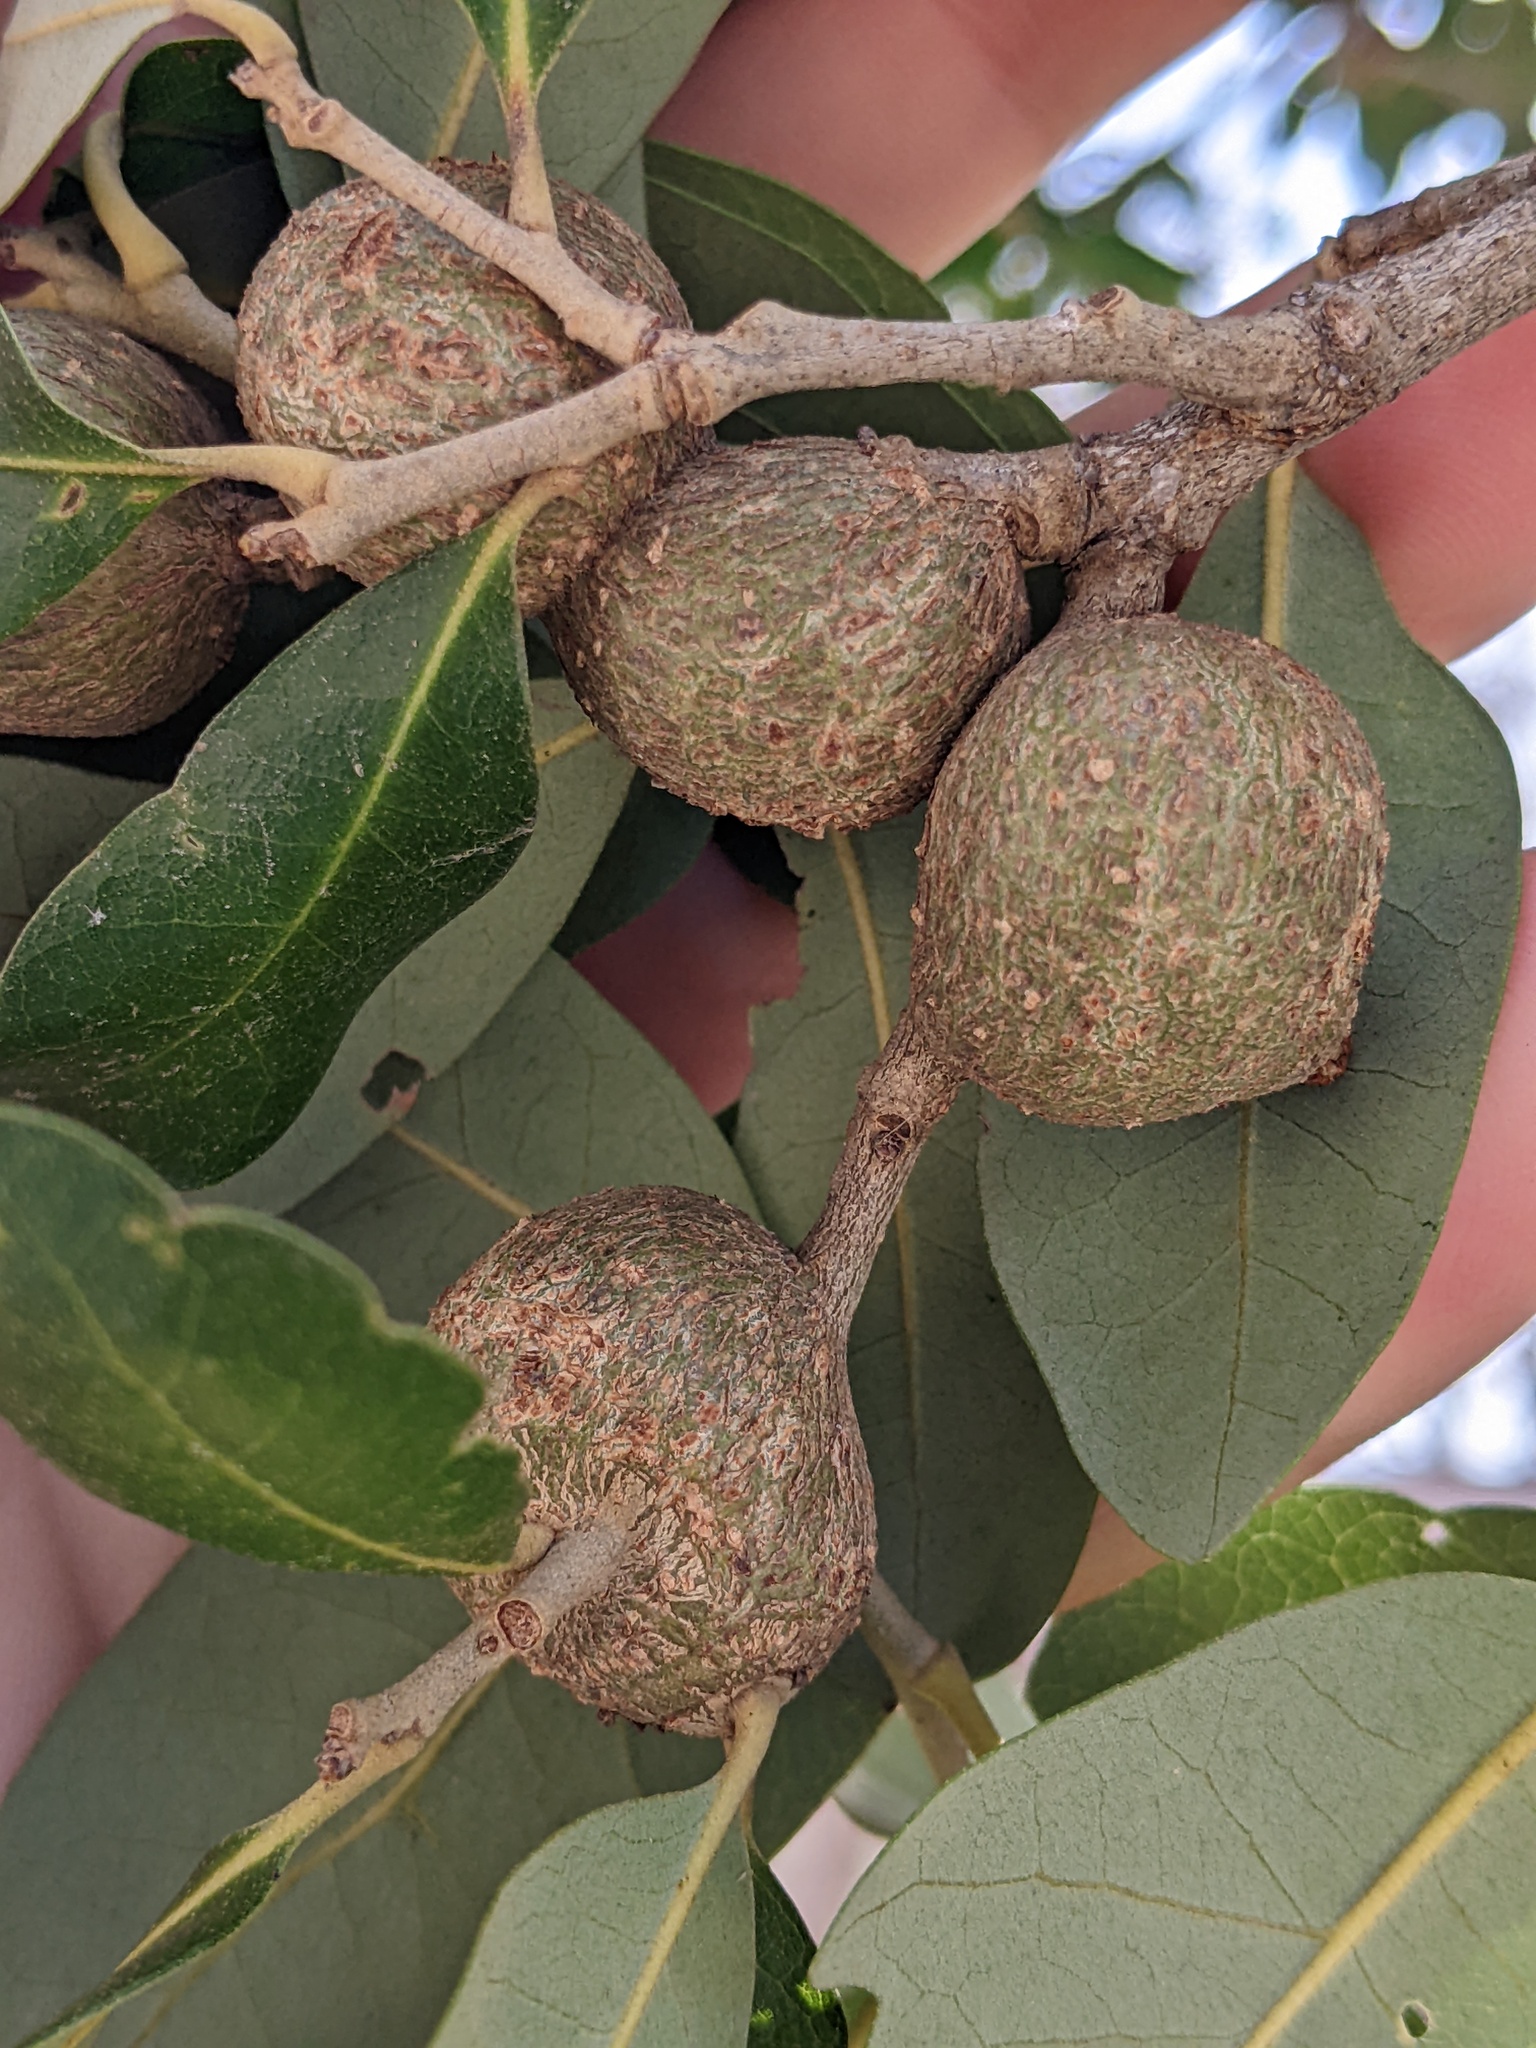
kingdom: Animalia
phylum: Arthropoda
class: Insecta
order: Hymenoptera
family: Cynipidae
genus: Callirhytis
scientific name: Callirhytis
